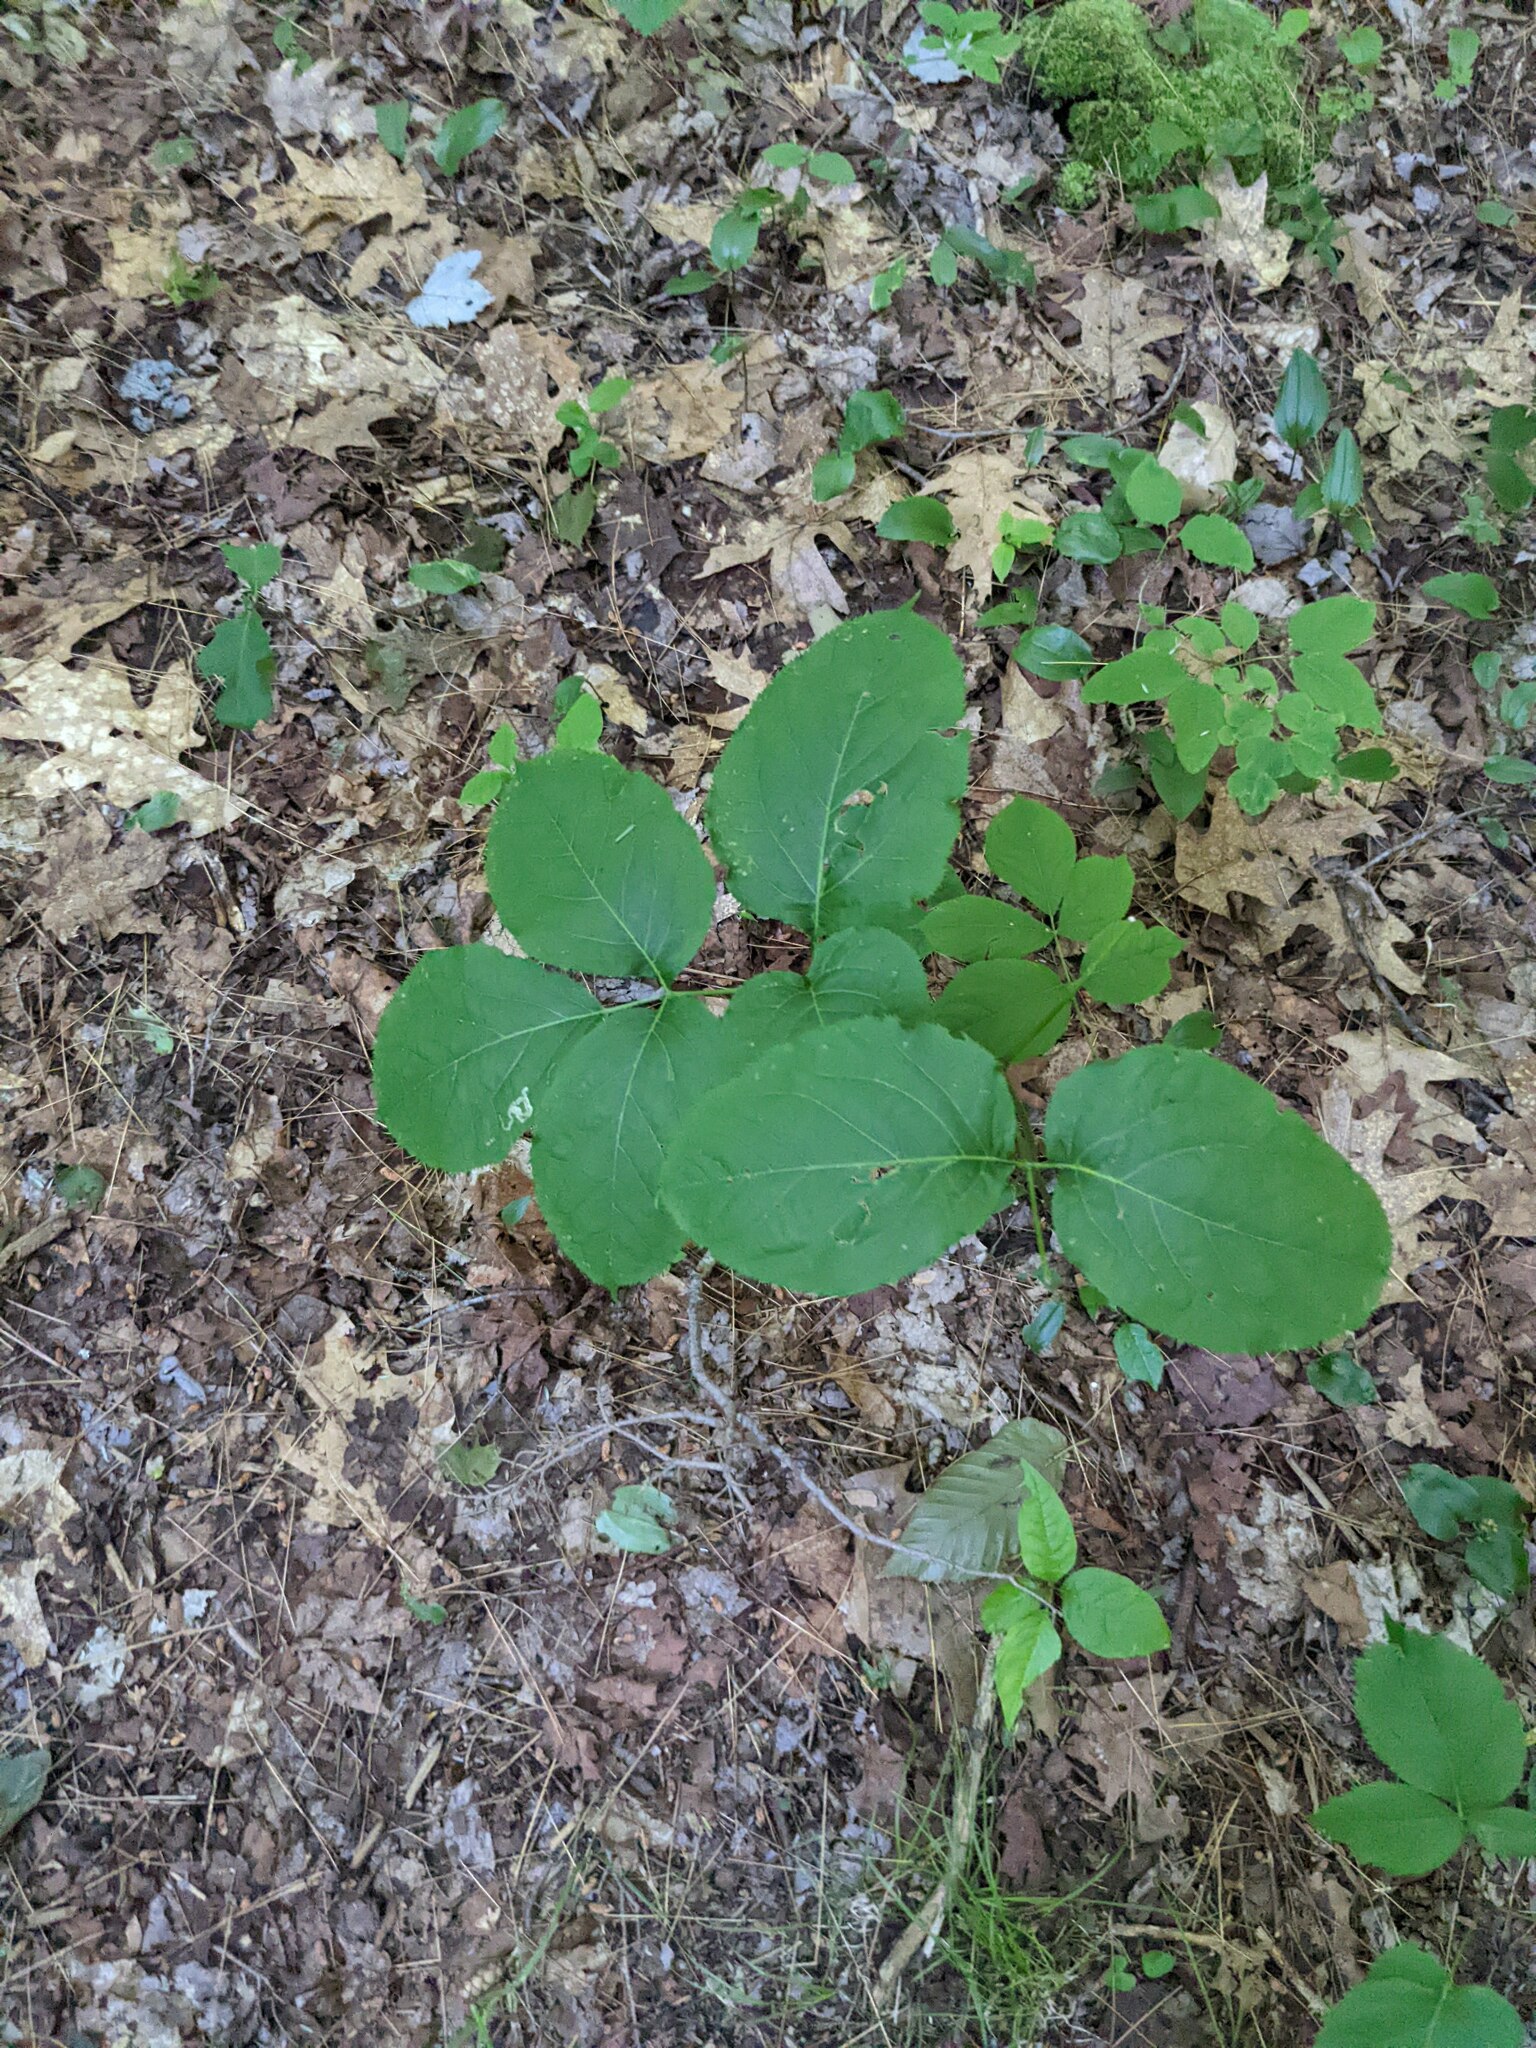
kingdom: Plantae
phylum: Tracheophyta
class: Magnoliopsida
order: Apiales
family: Araliaceae
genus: Aralia
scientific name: Aralia nudicaulis
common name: Wild sarsaparilla
